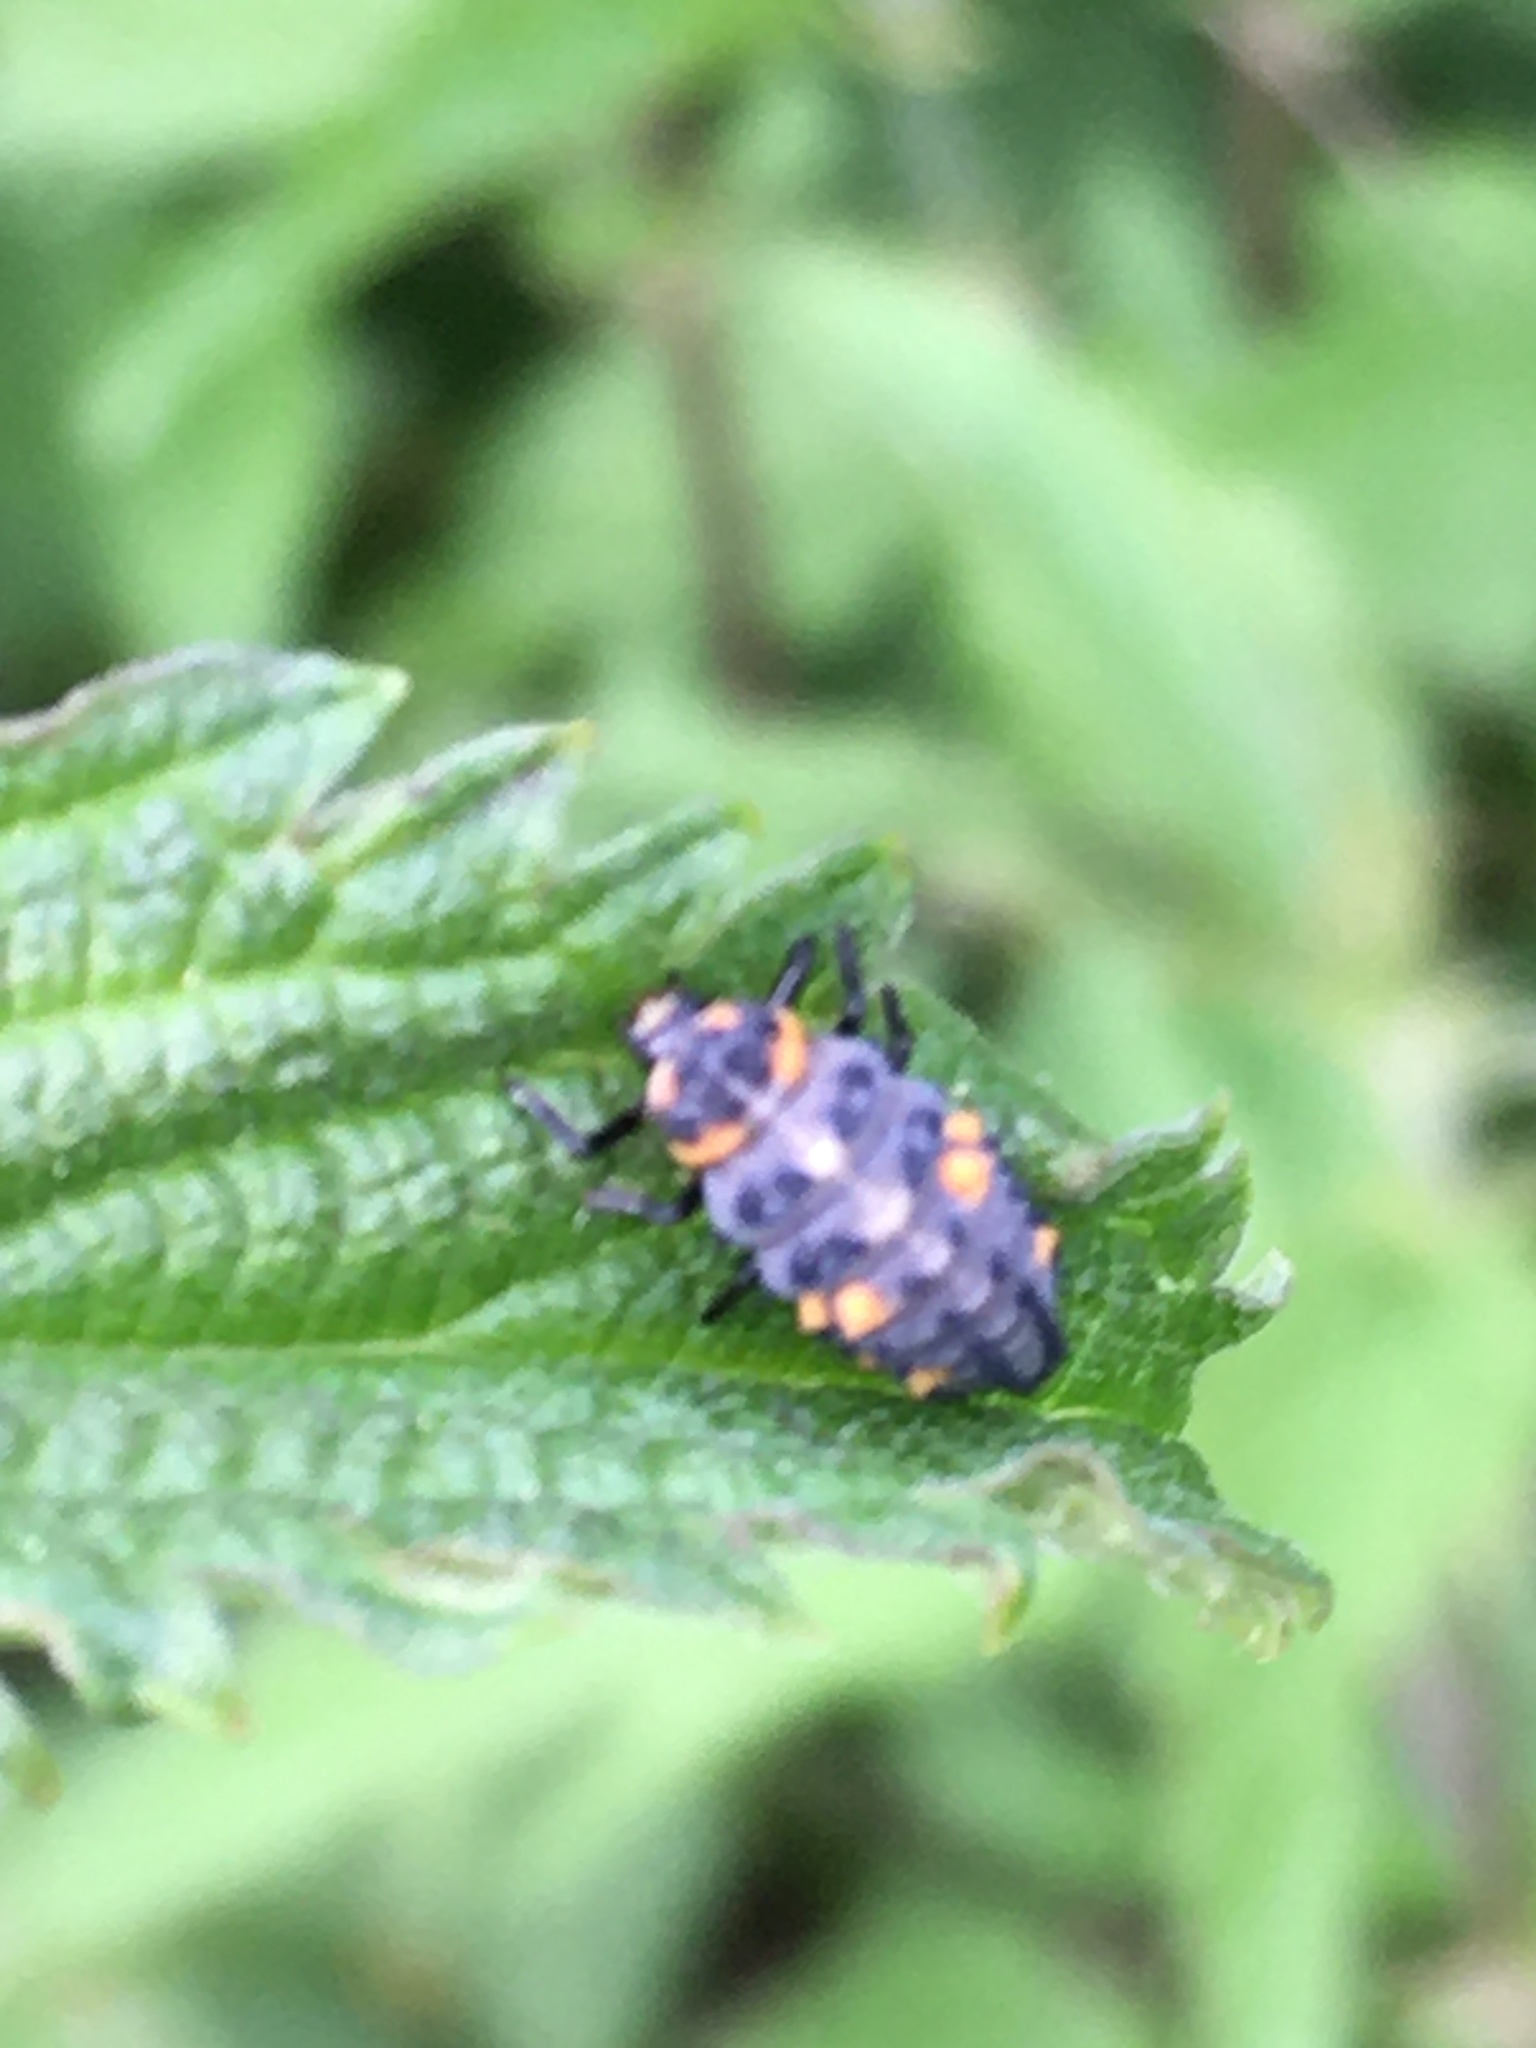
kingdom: Animalia
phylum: Arthropoda
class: Insecta
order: Coleoptera
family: Coccinellidae
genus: Coccinella
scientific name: Coccinella septempunctata
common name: Sevenspotted lady beetle
